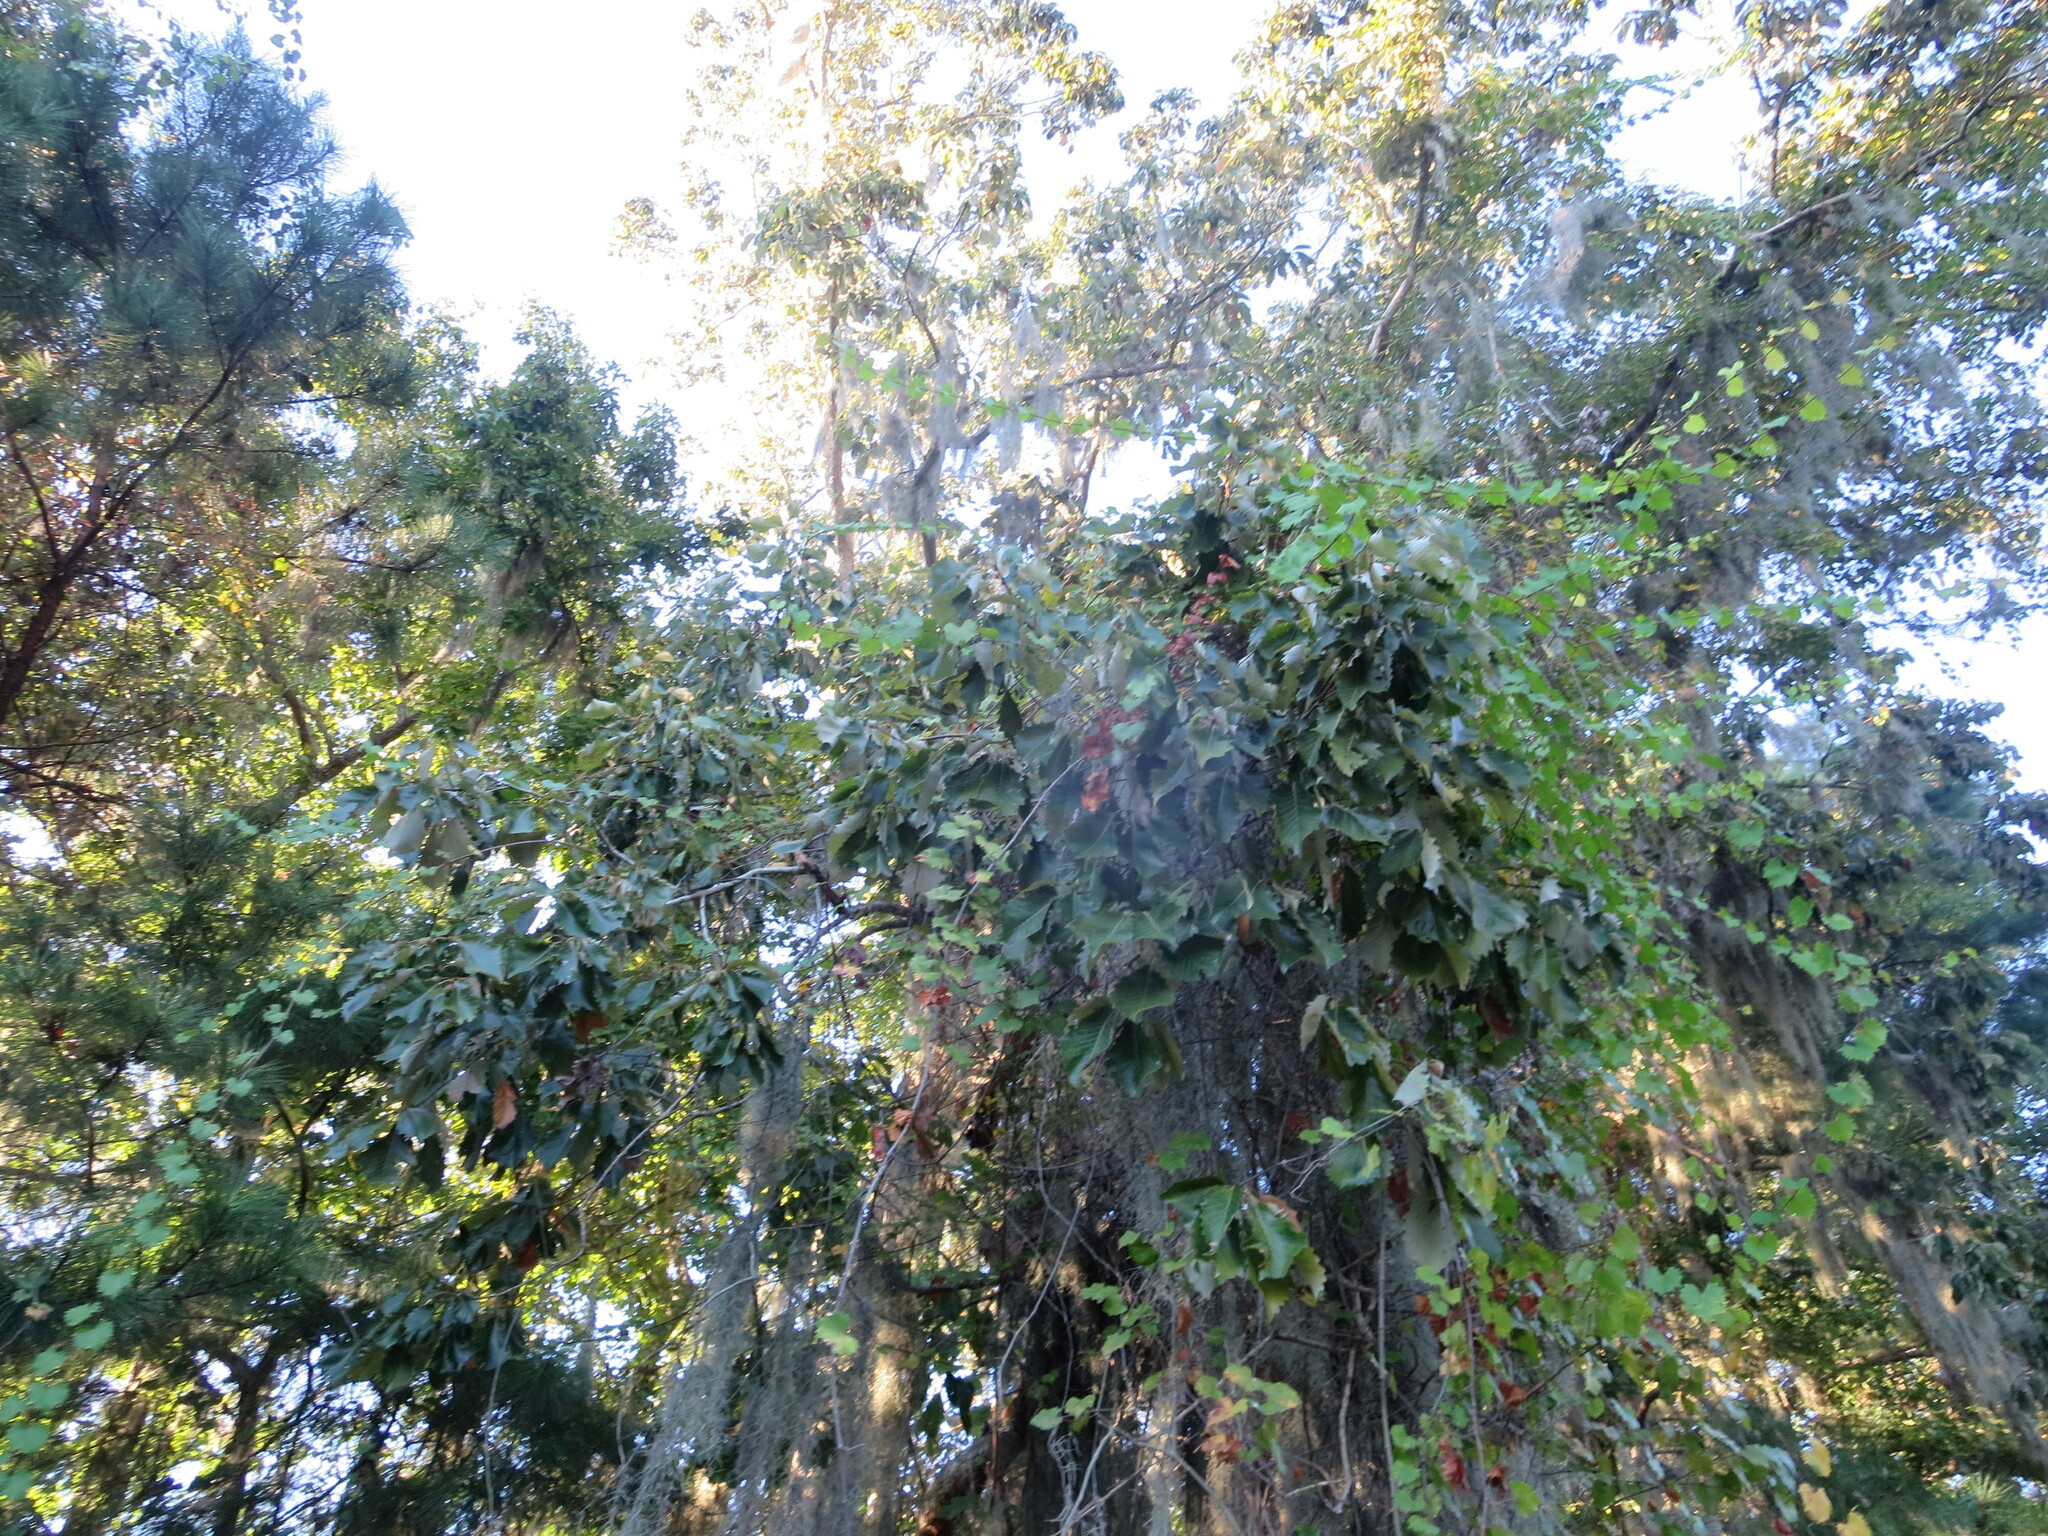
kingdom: Plantae
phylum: Tracheophyta
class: Magnoliopsida
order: Fagales
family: Fagaceae
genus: Quercus
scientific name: Quercus michauxii
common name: Swamp chestnut oak
